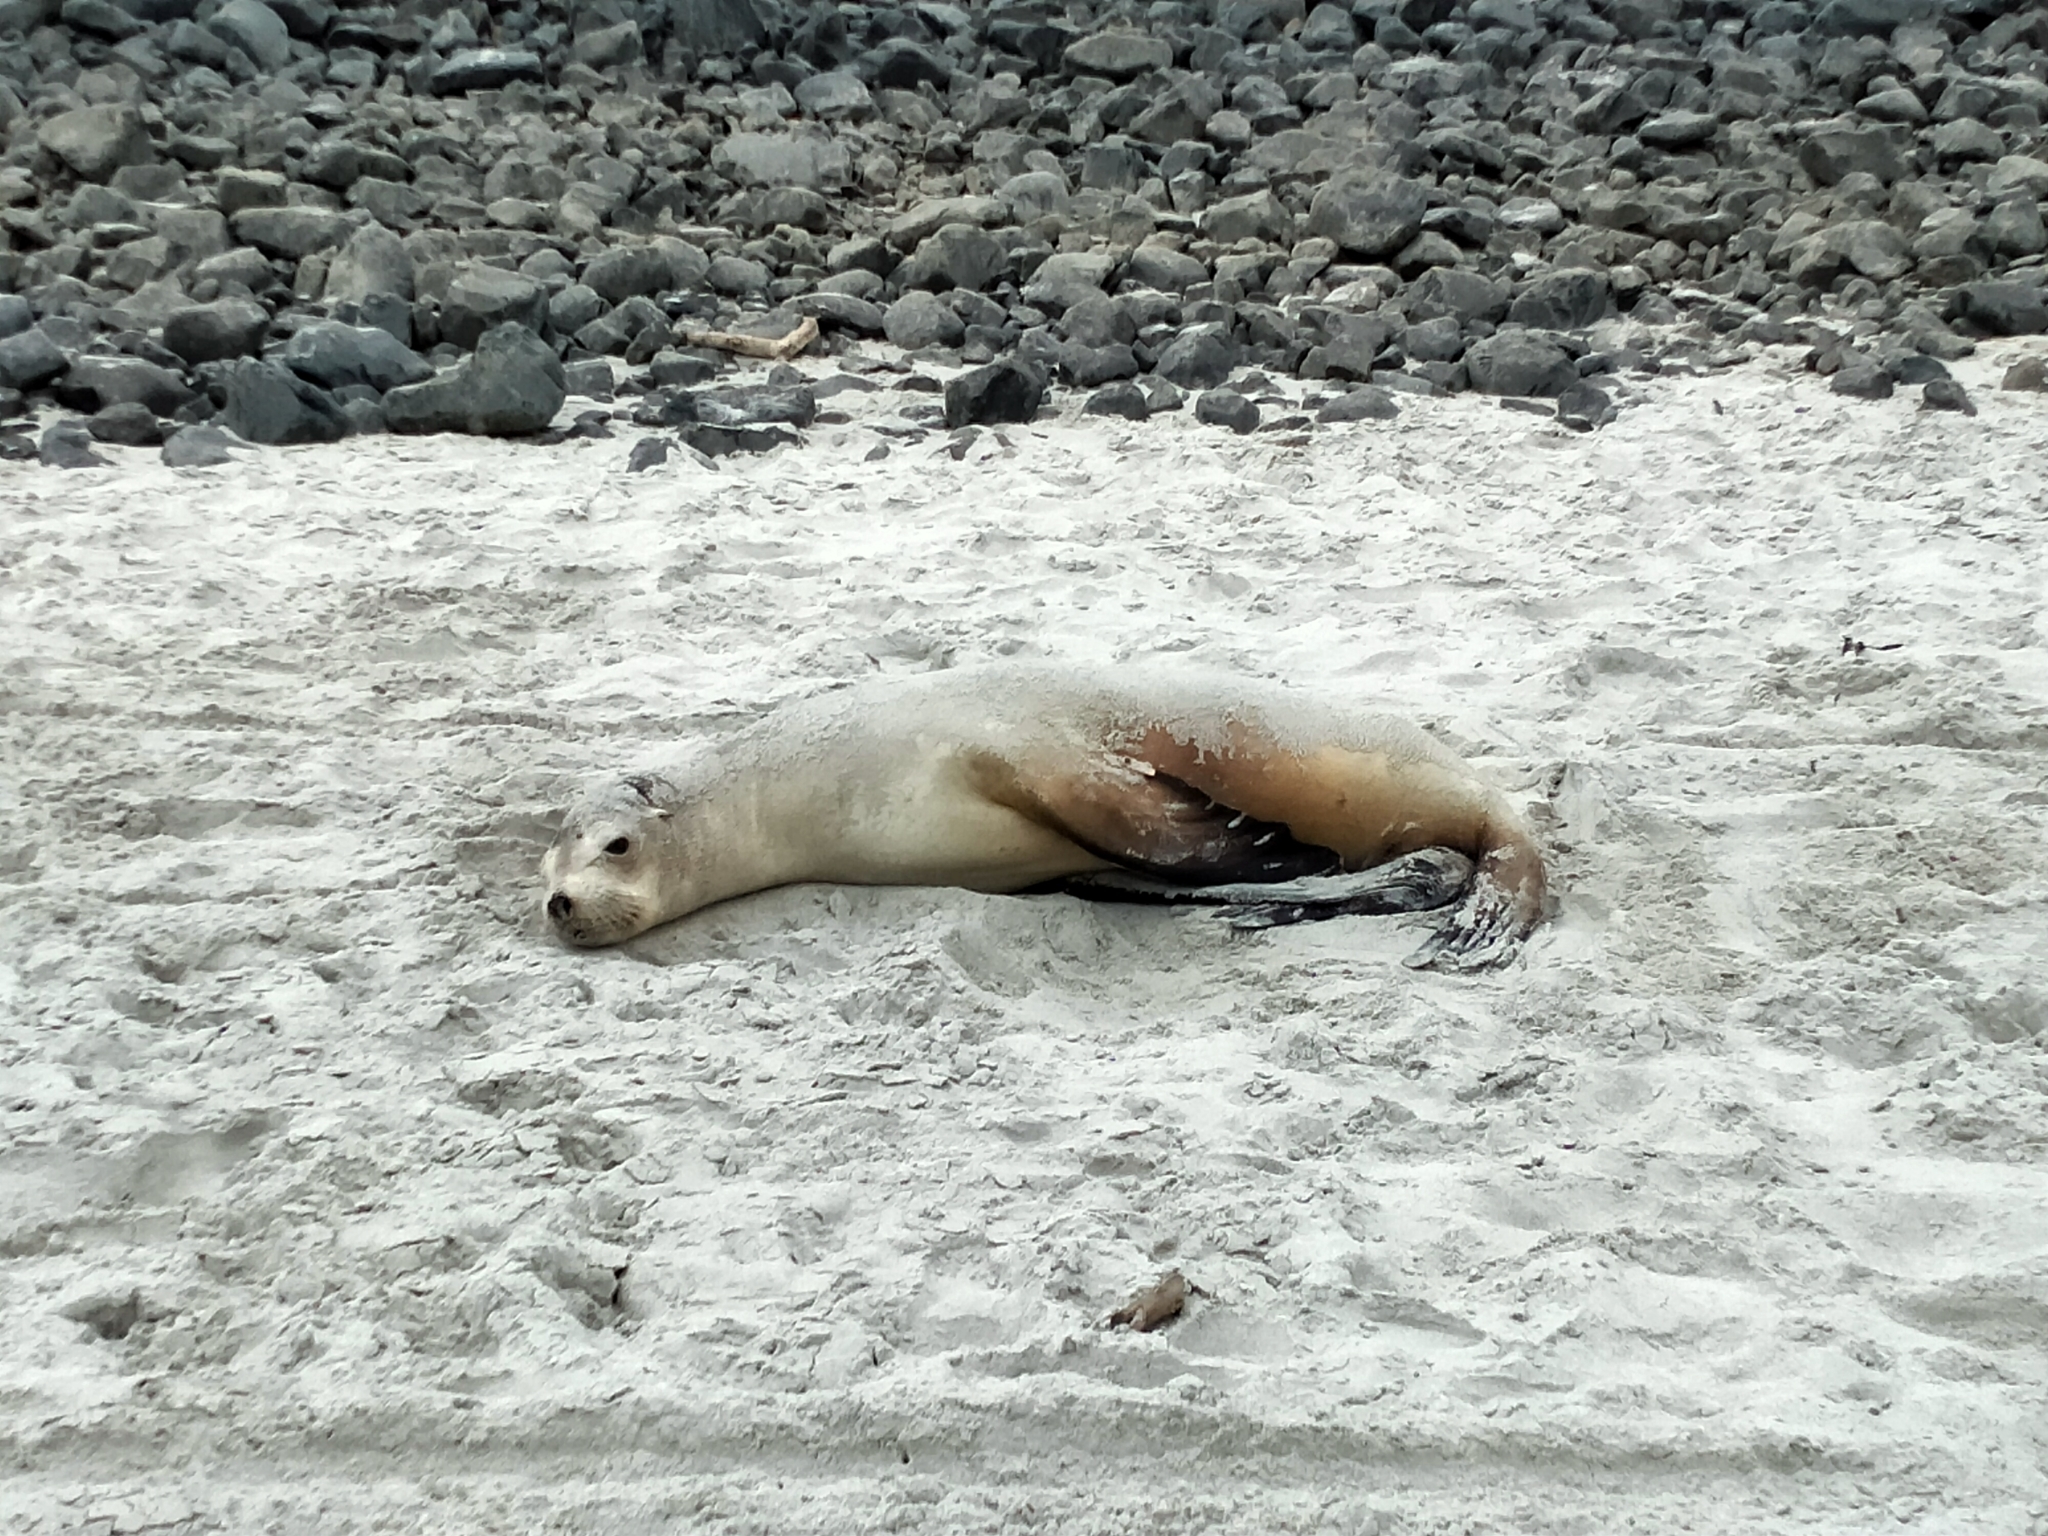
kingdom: Animalia
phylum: Chordata
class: Mammalia
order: Carnivora
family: Otariidae
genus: Phocarctos
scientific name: Phocarctos hookeri
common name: New zealand sea lion
